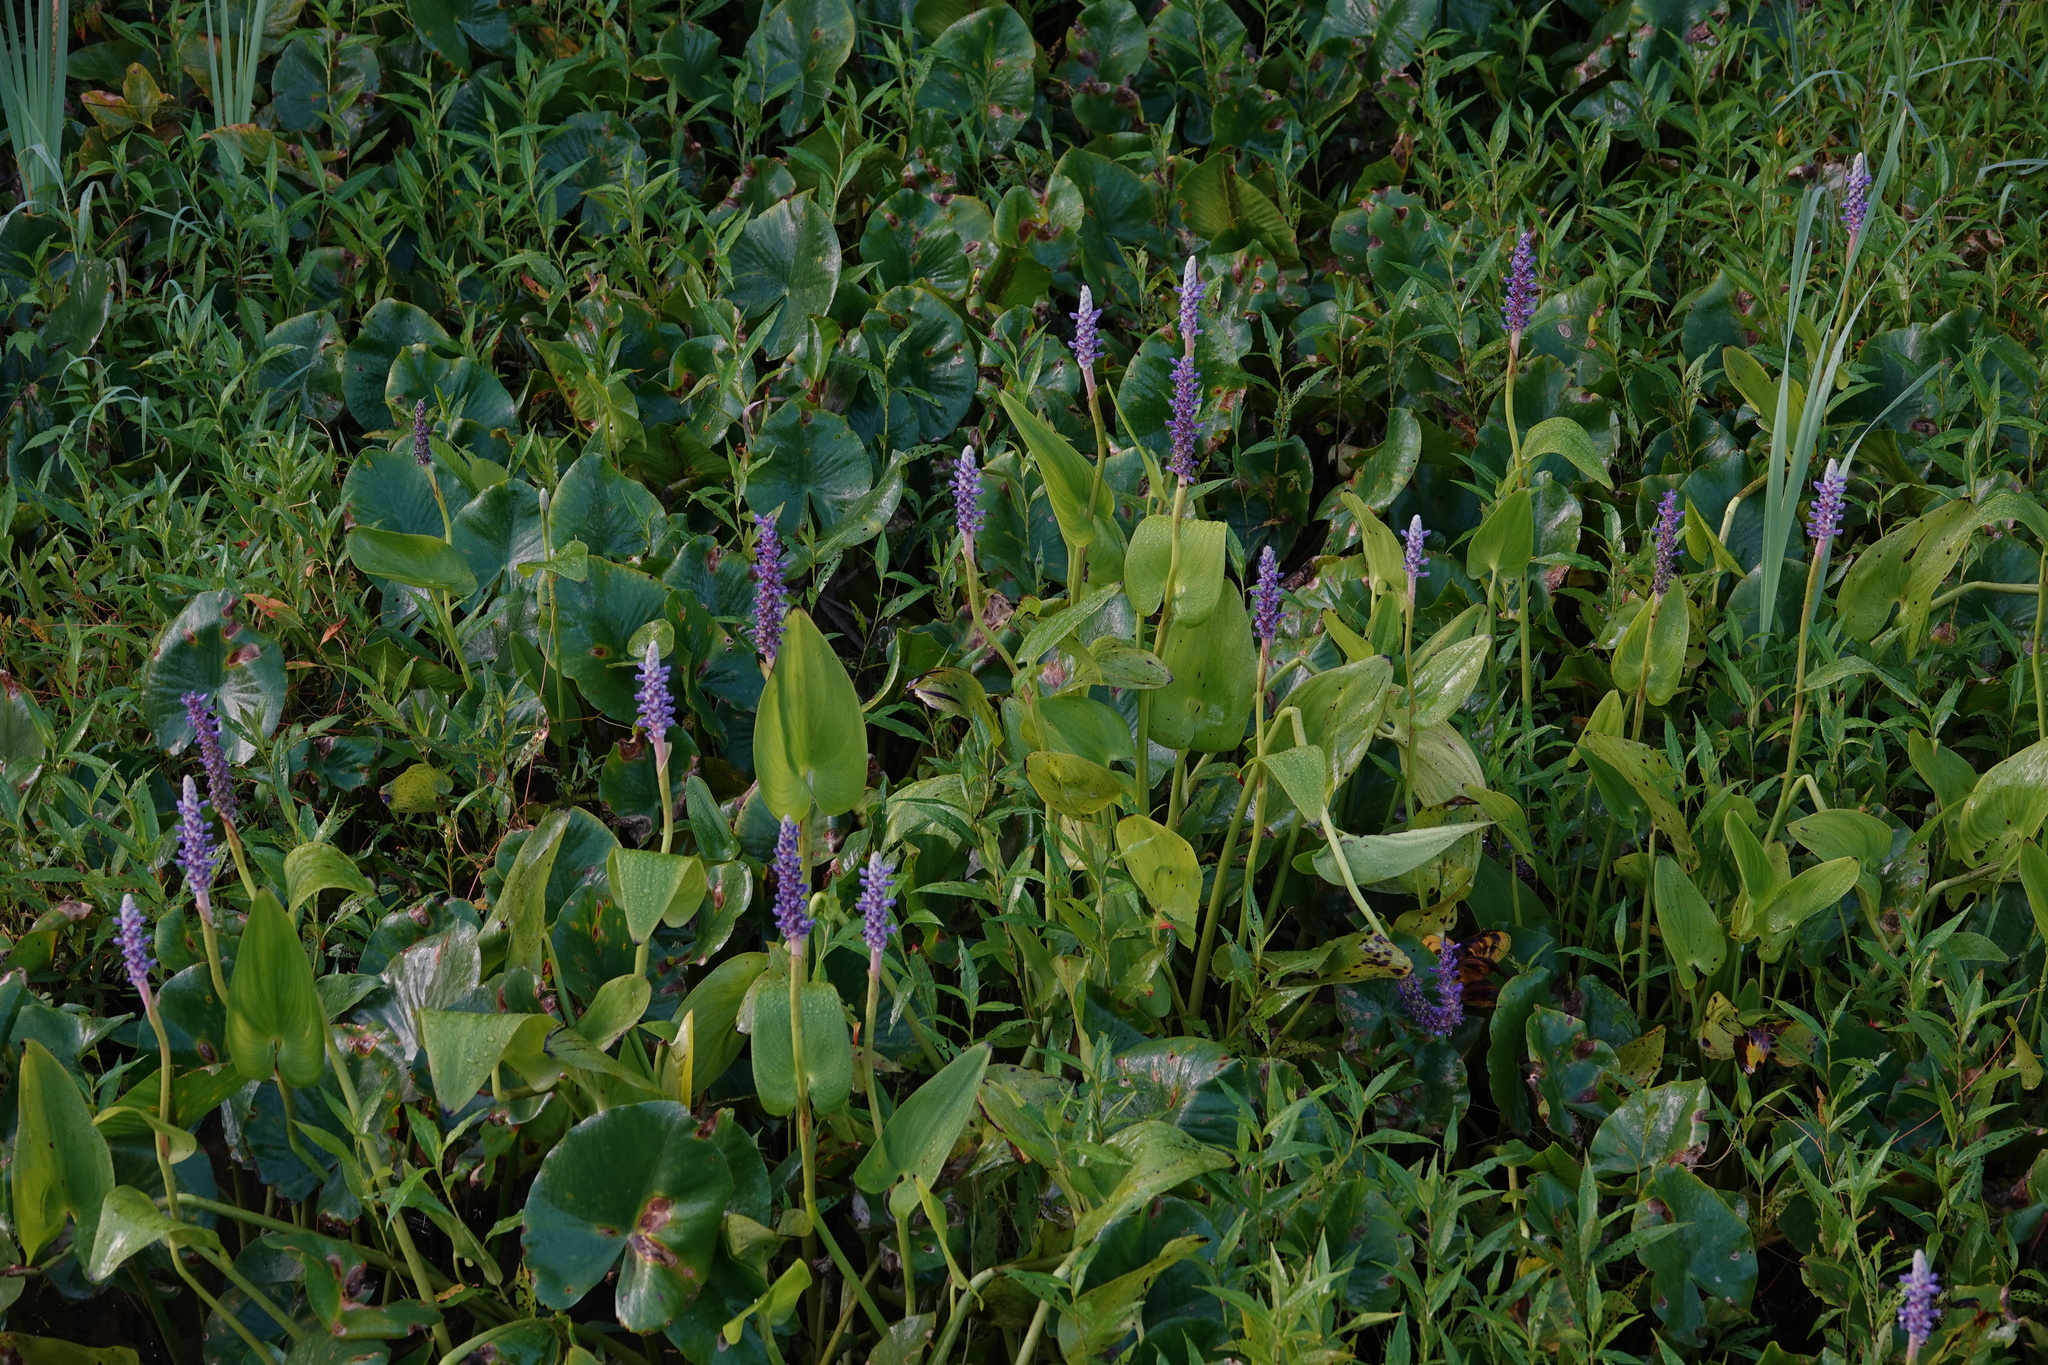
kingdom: Plantae
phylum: Tracheophyta
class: Liliopsida
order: Commelinales
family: Pontederiaceae
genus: Pontederia
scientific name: Pontederia cordata
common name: Pickerelweed
